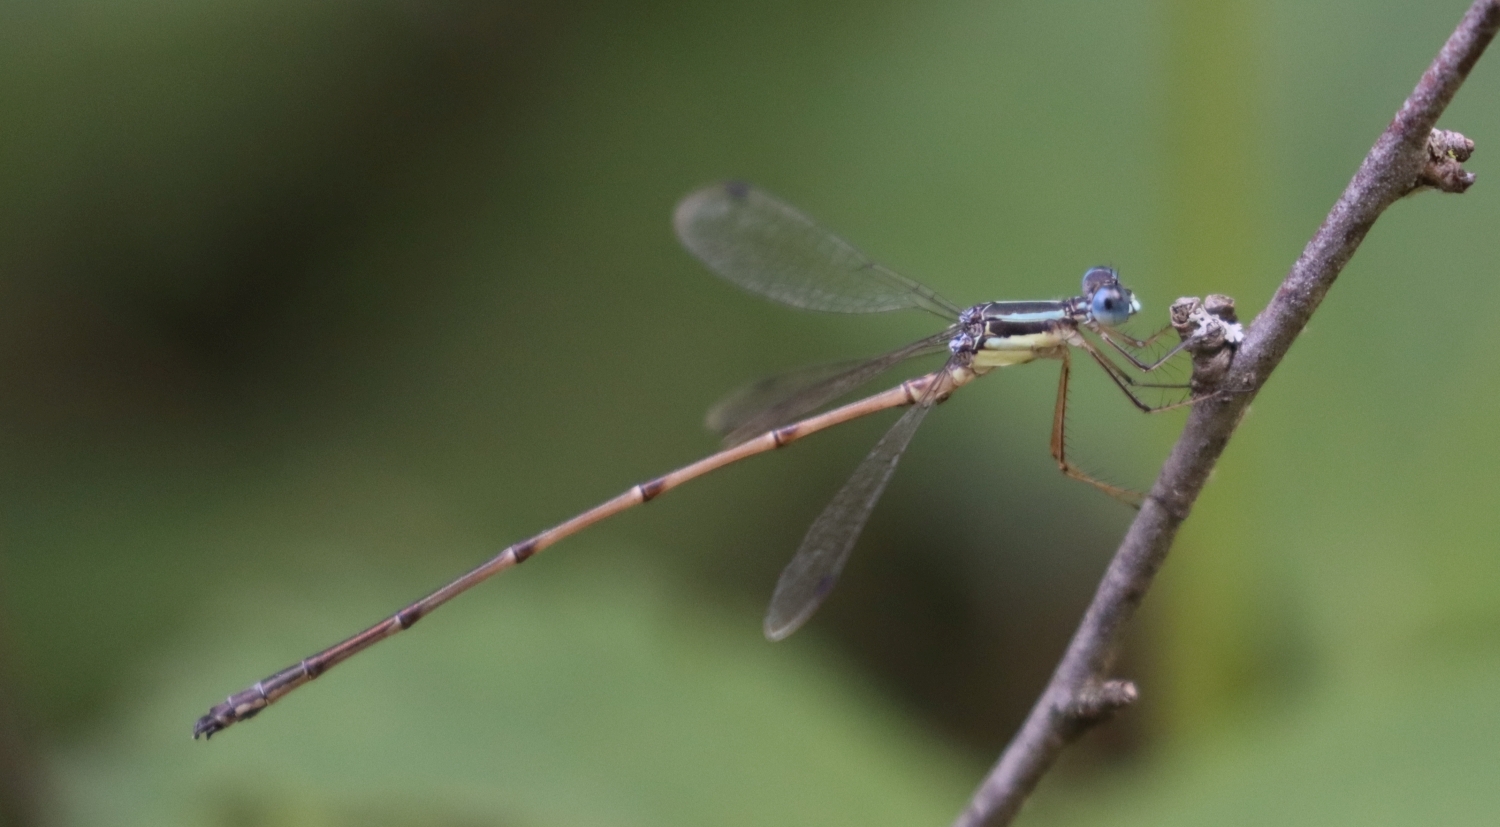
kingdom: Animalia
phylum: Arthropoda
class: Insecta
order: Odonata
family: Lestidae
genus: Lestes
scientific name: Lestes rectangularis
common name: Slender spreadwing
